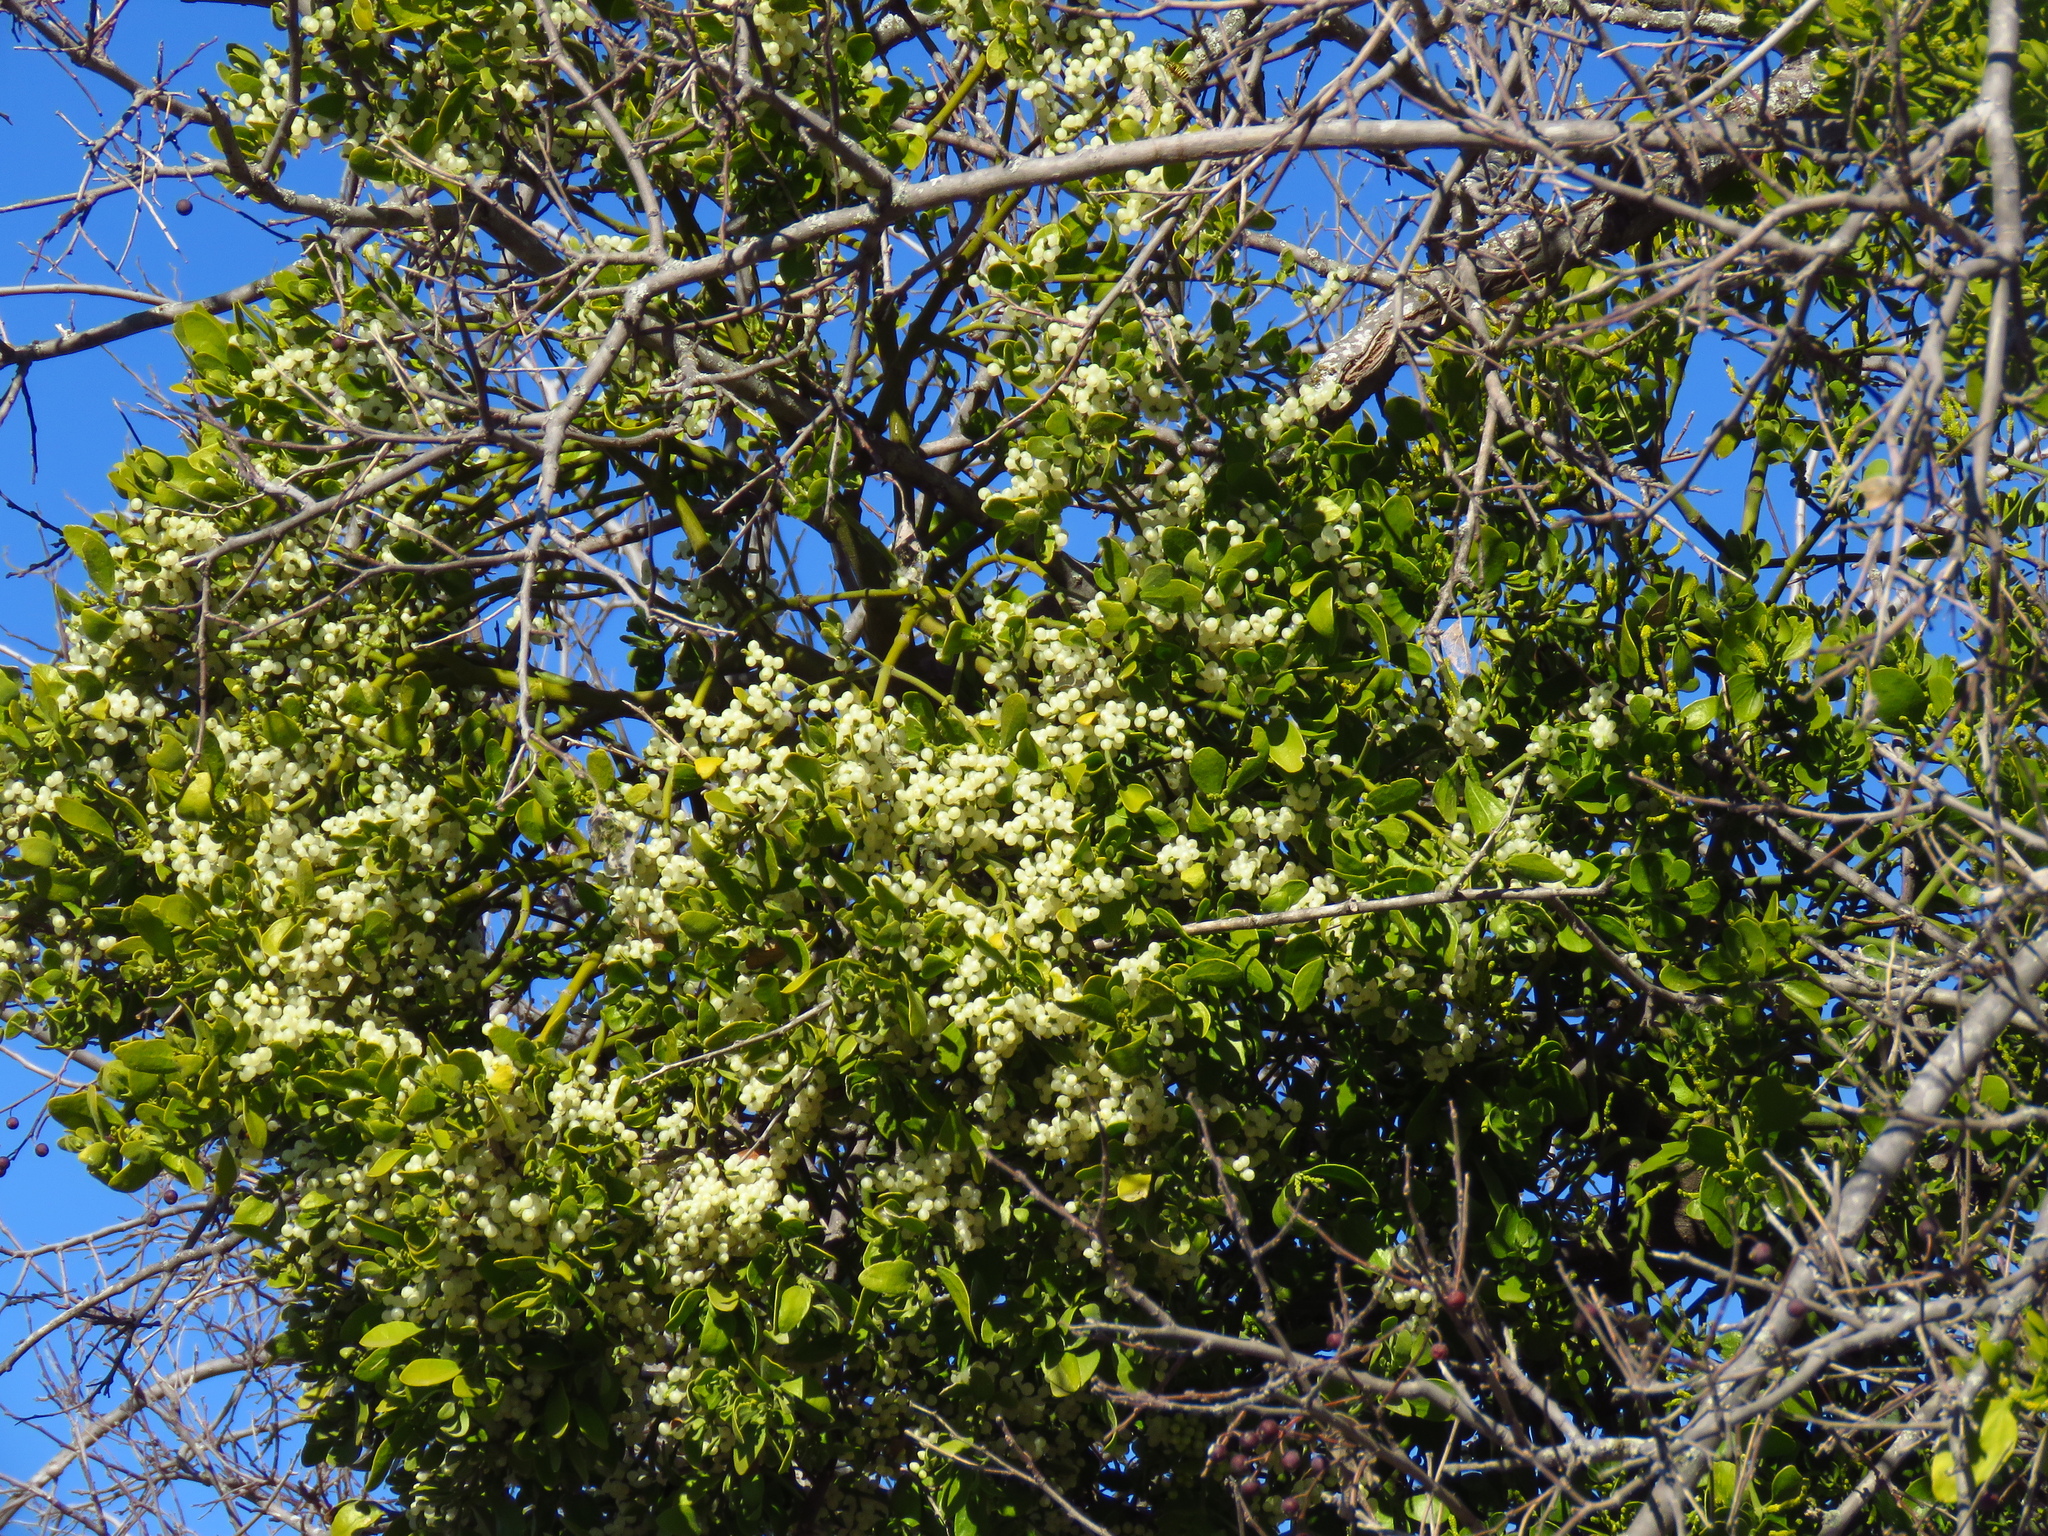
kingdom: Plantae
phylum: Tracheophyta
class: Magnoliopsida
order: Santalales
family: Viscaceae
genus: Phoradendron
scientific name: Phoradendron leucarpum
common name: Pacific mistletoe
